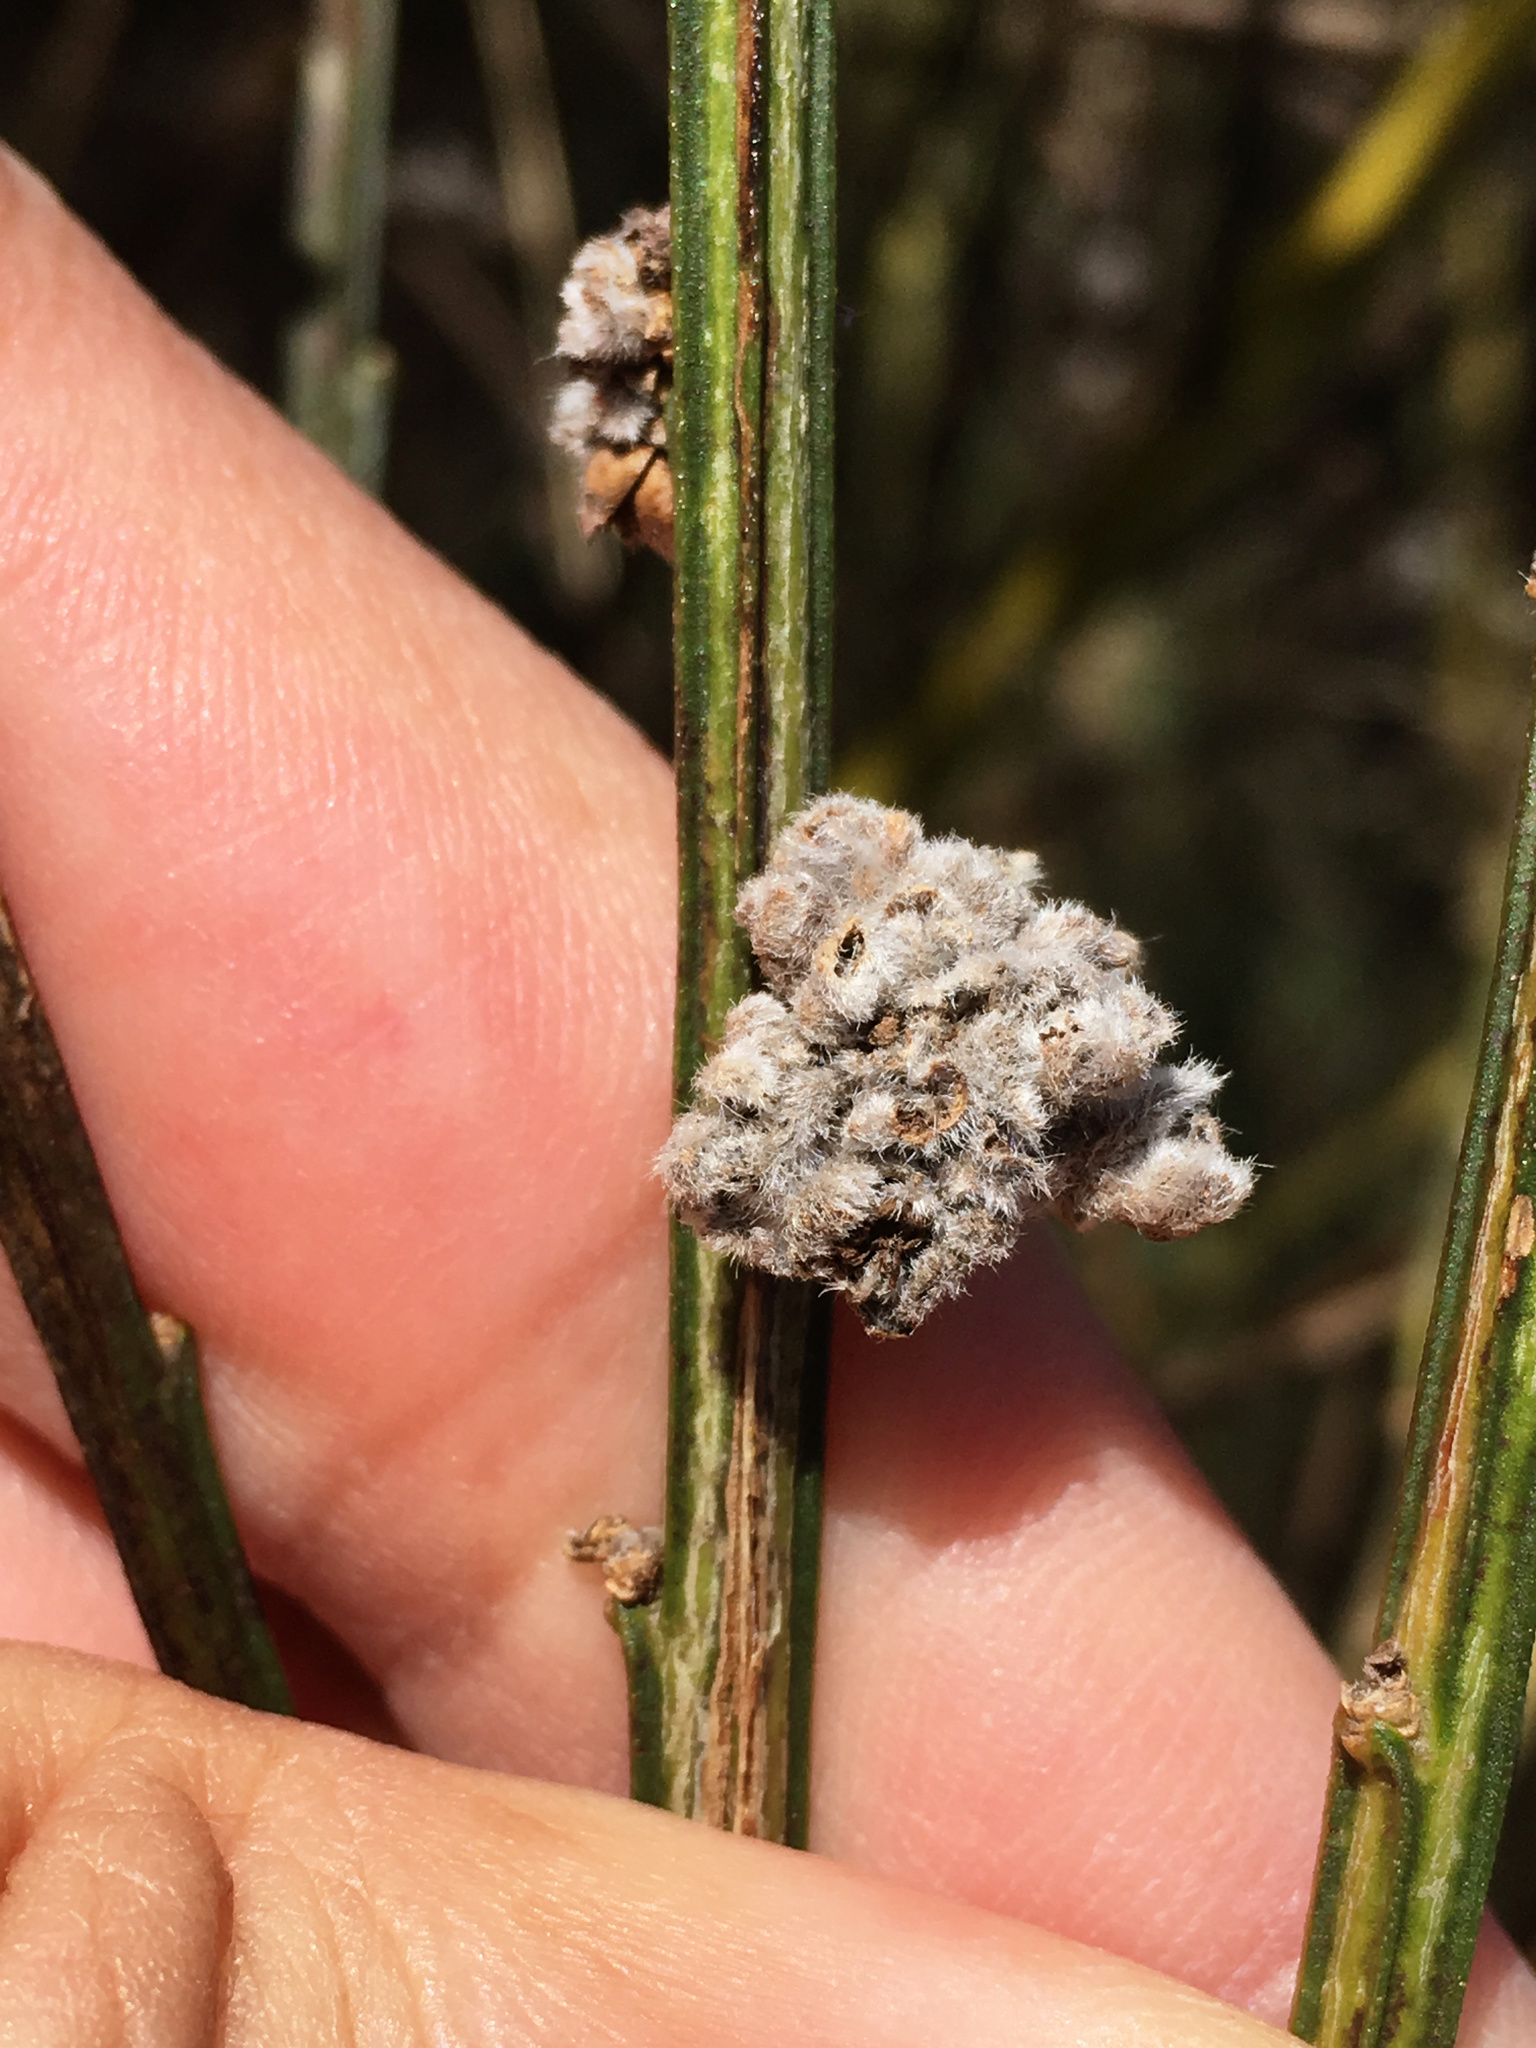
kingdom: Animalia
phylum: Arthropoda
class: Arachnida
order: Trombidiformes
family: Eriophyidae
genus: Aceria
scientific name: Aceria genistae
